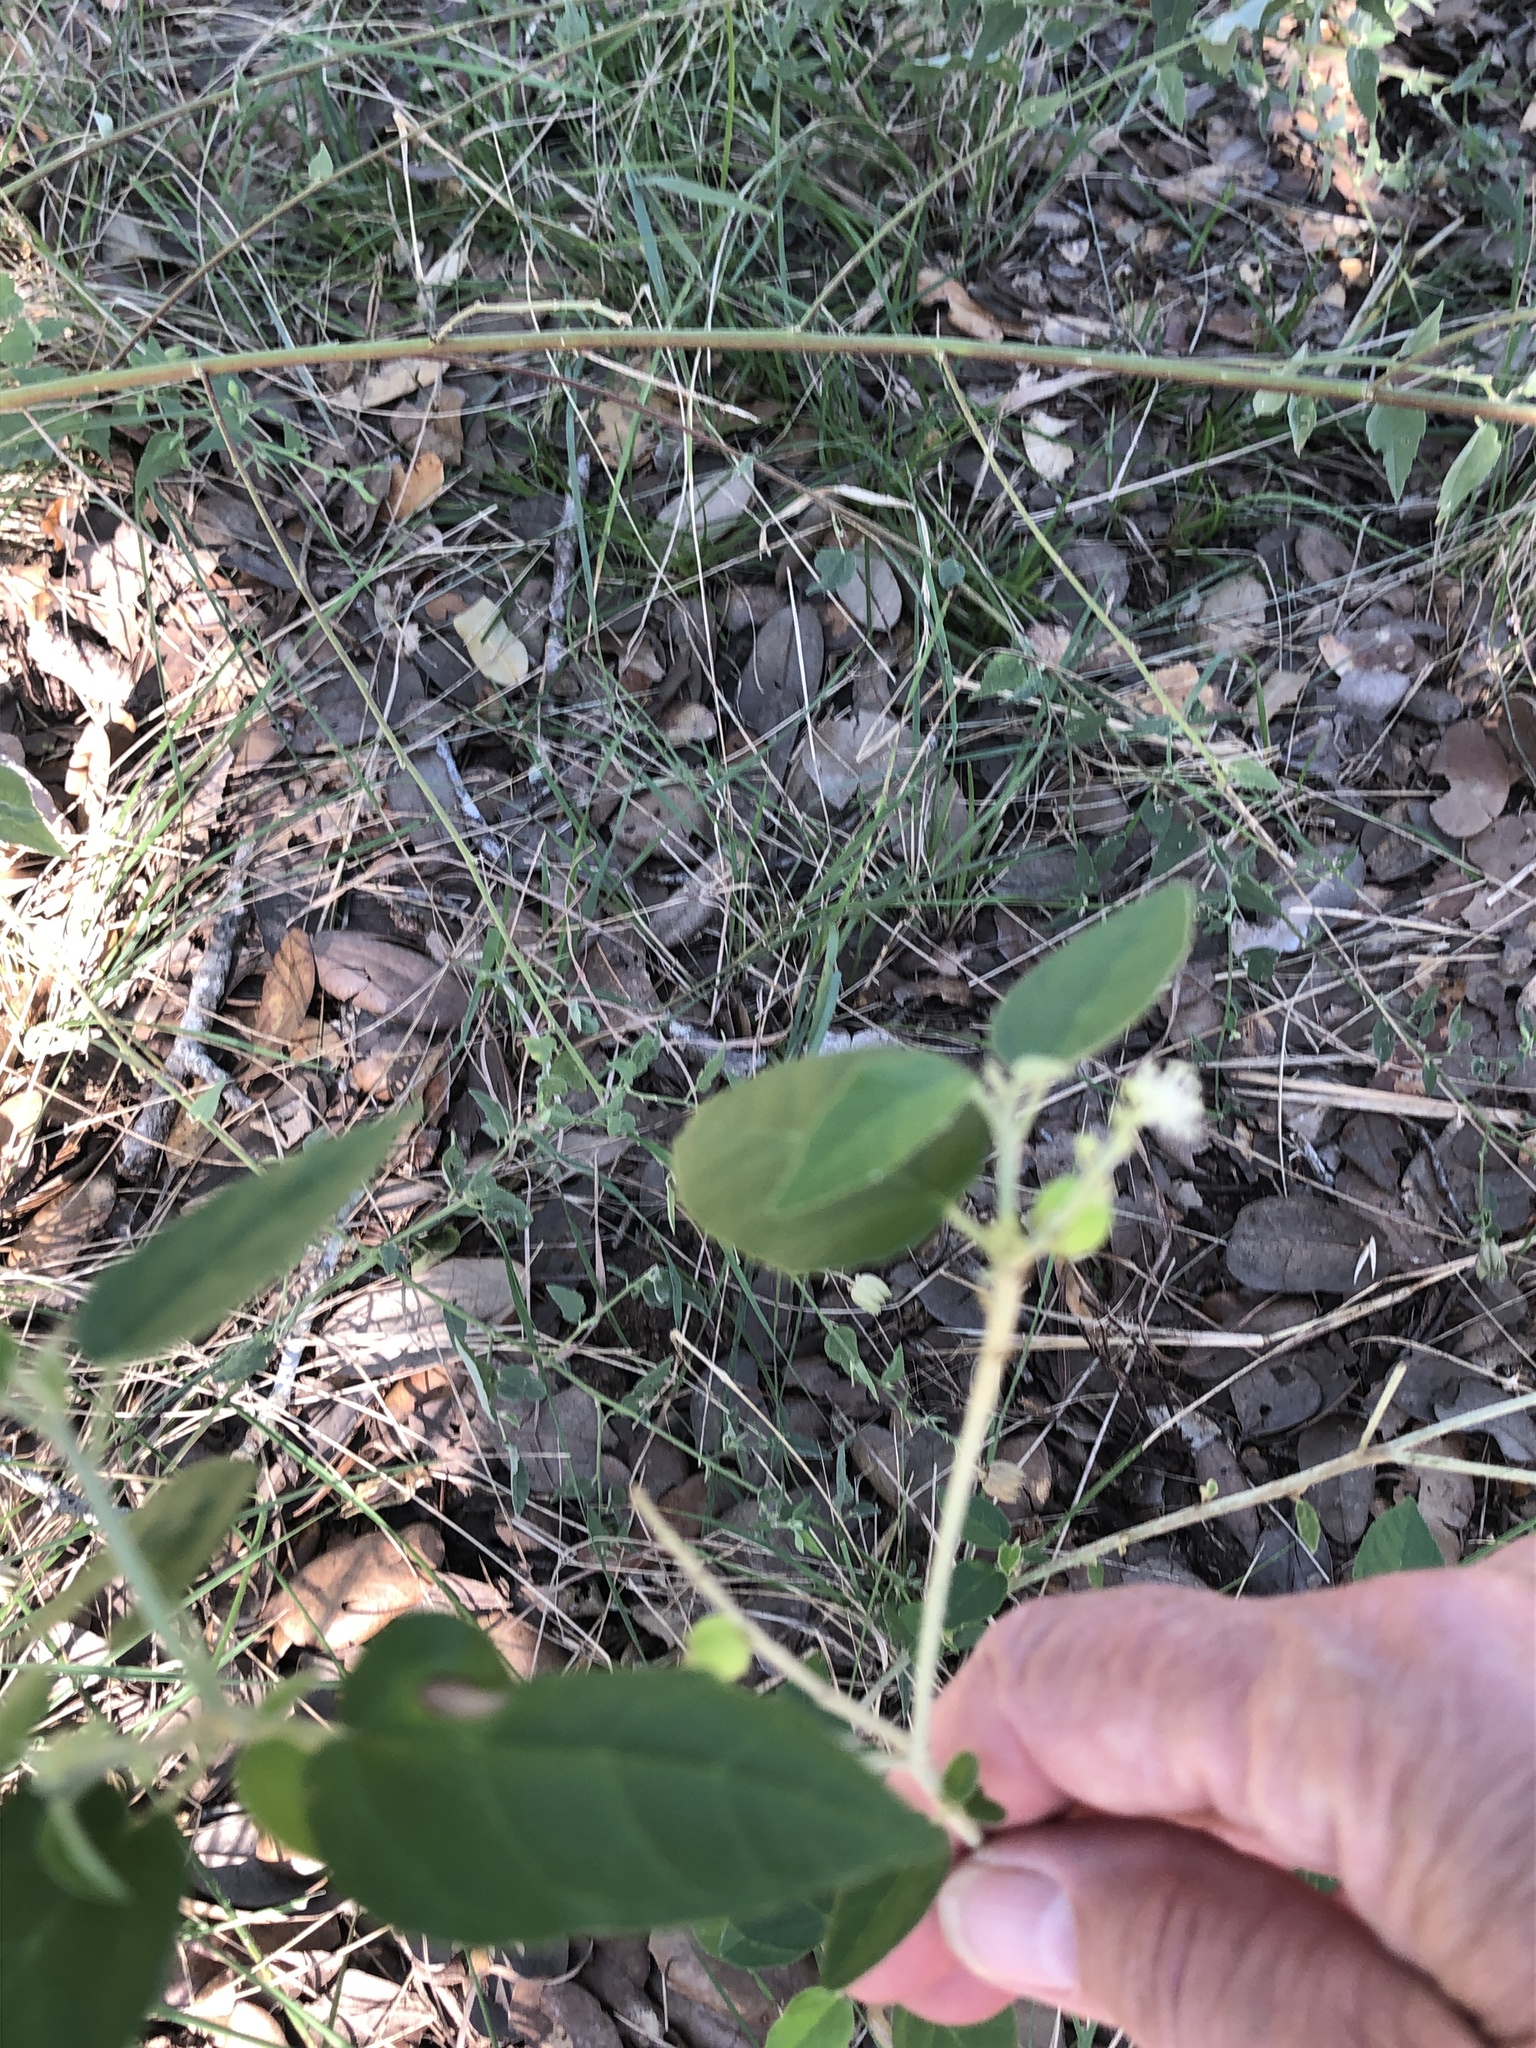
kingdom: Plantae
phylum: Tracheophyta
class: Magnoliopsida
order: Malpighiales
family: Euphorbiaceae
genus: Croton
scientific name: Croton fruticulosus
